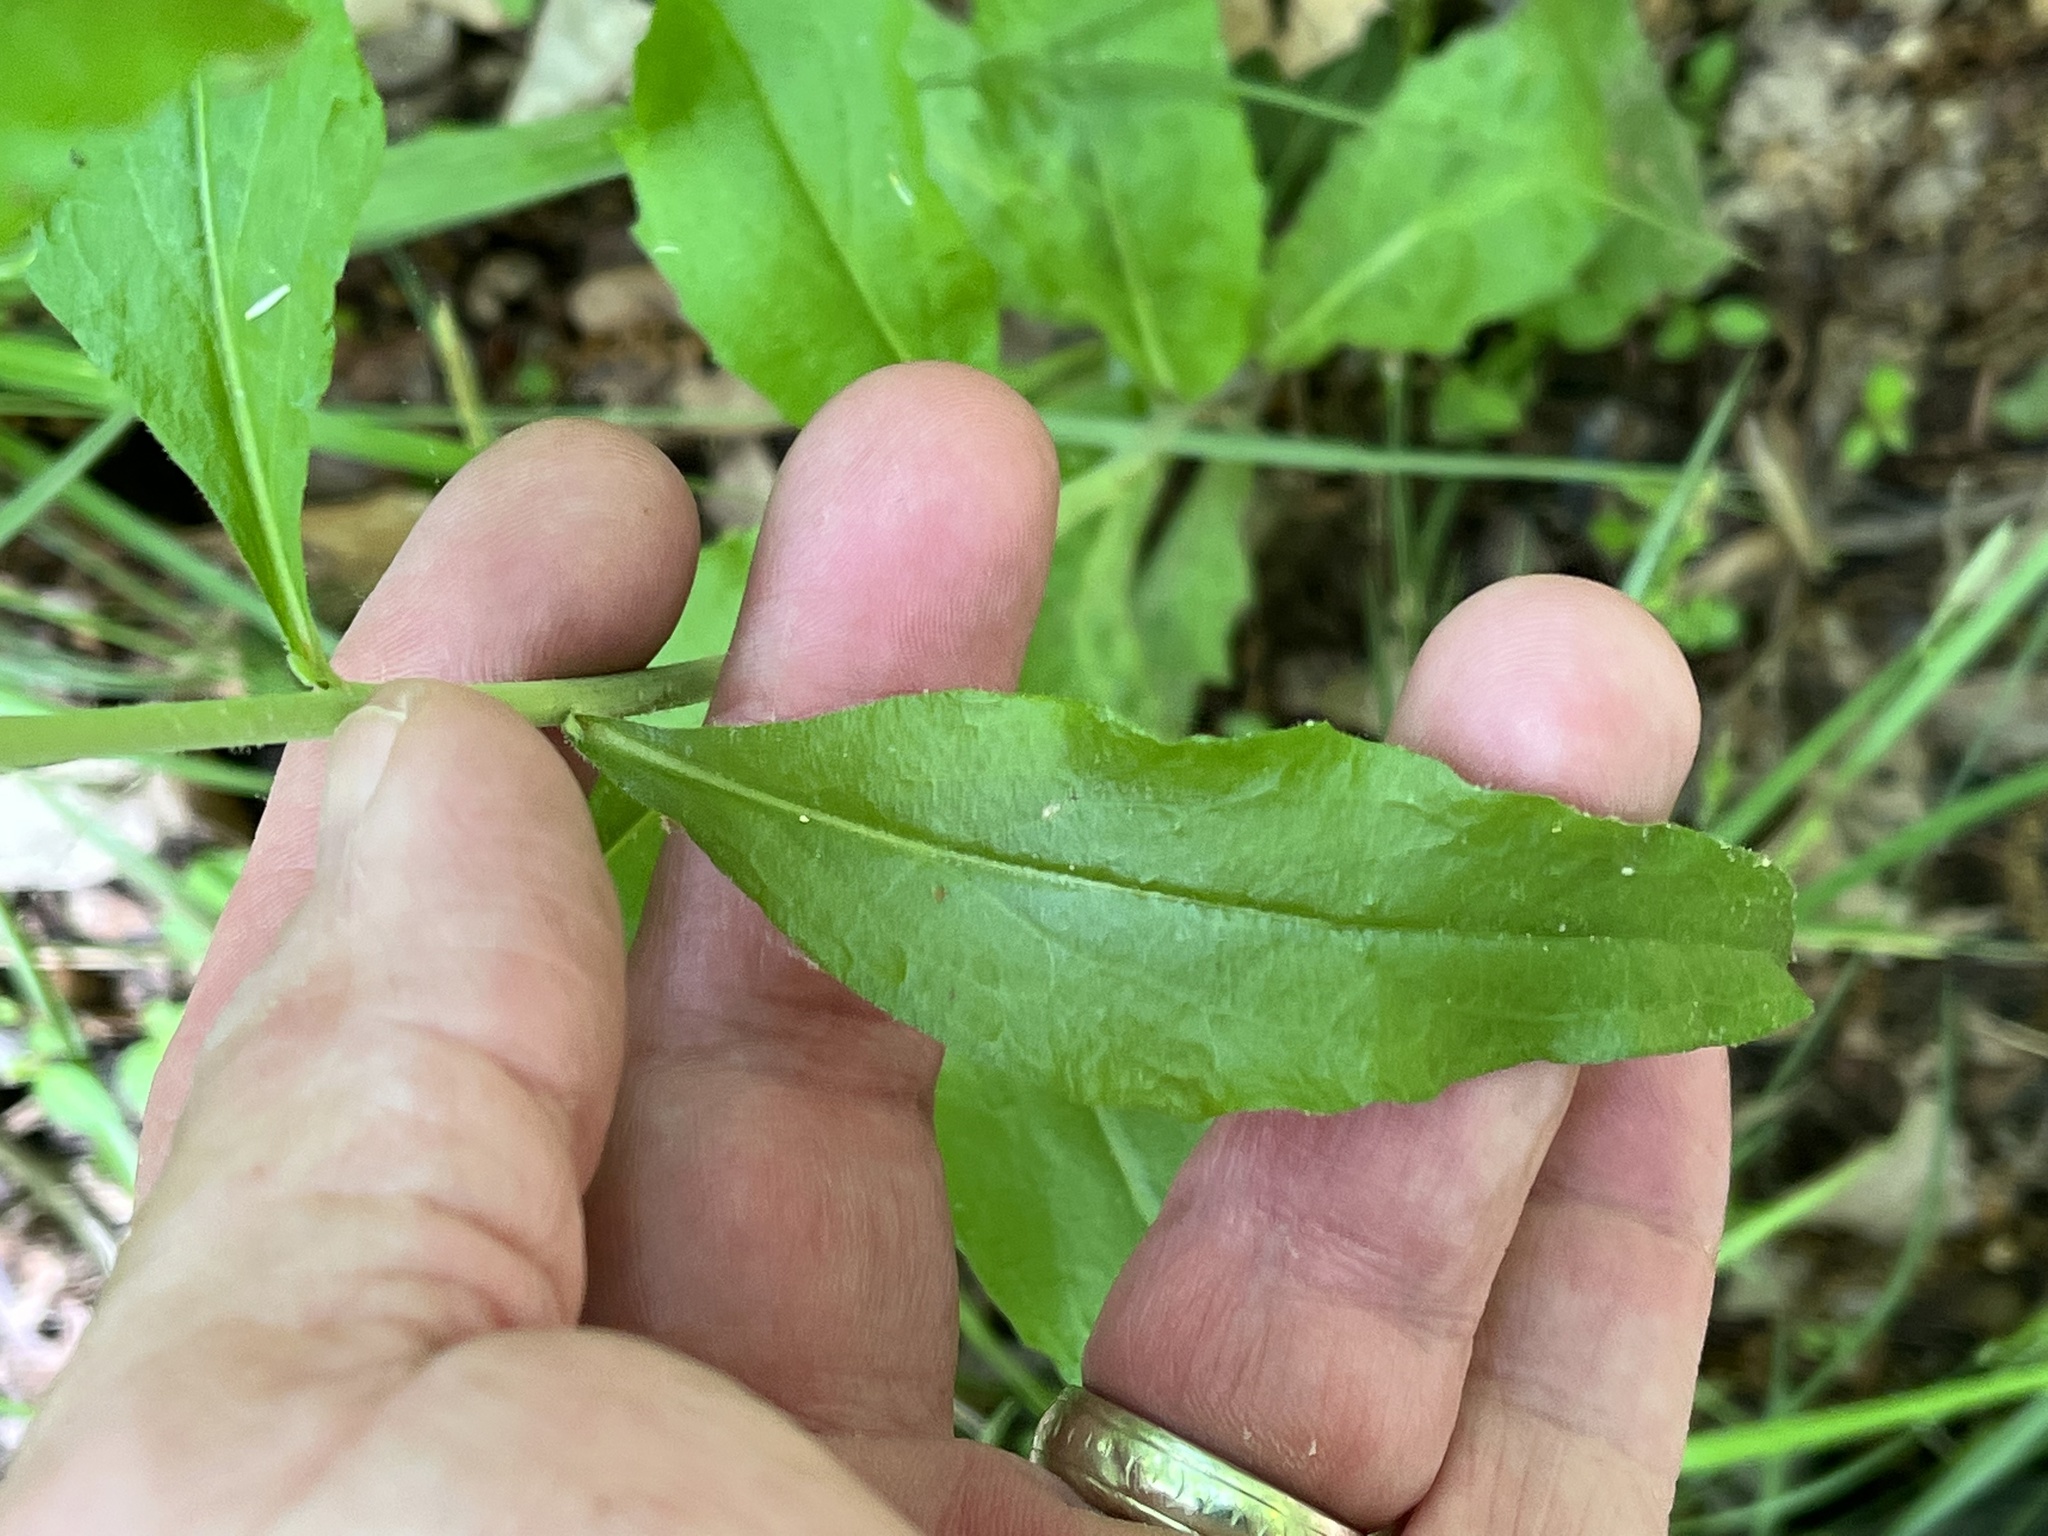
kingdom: Plantae
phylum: Tracheophyta
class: Magnoliopsida
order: Brassicales
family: Brassicaceae
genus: Borodinia
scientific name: Borodinia canadensis
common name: Sicklepod
